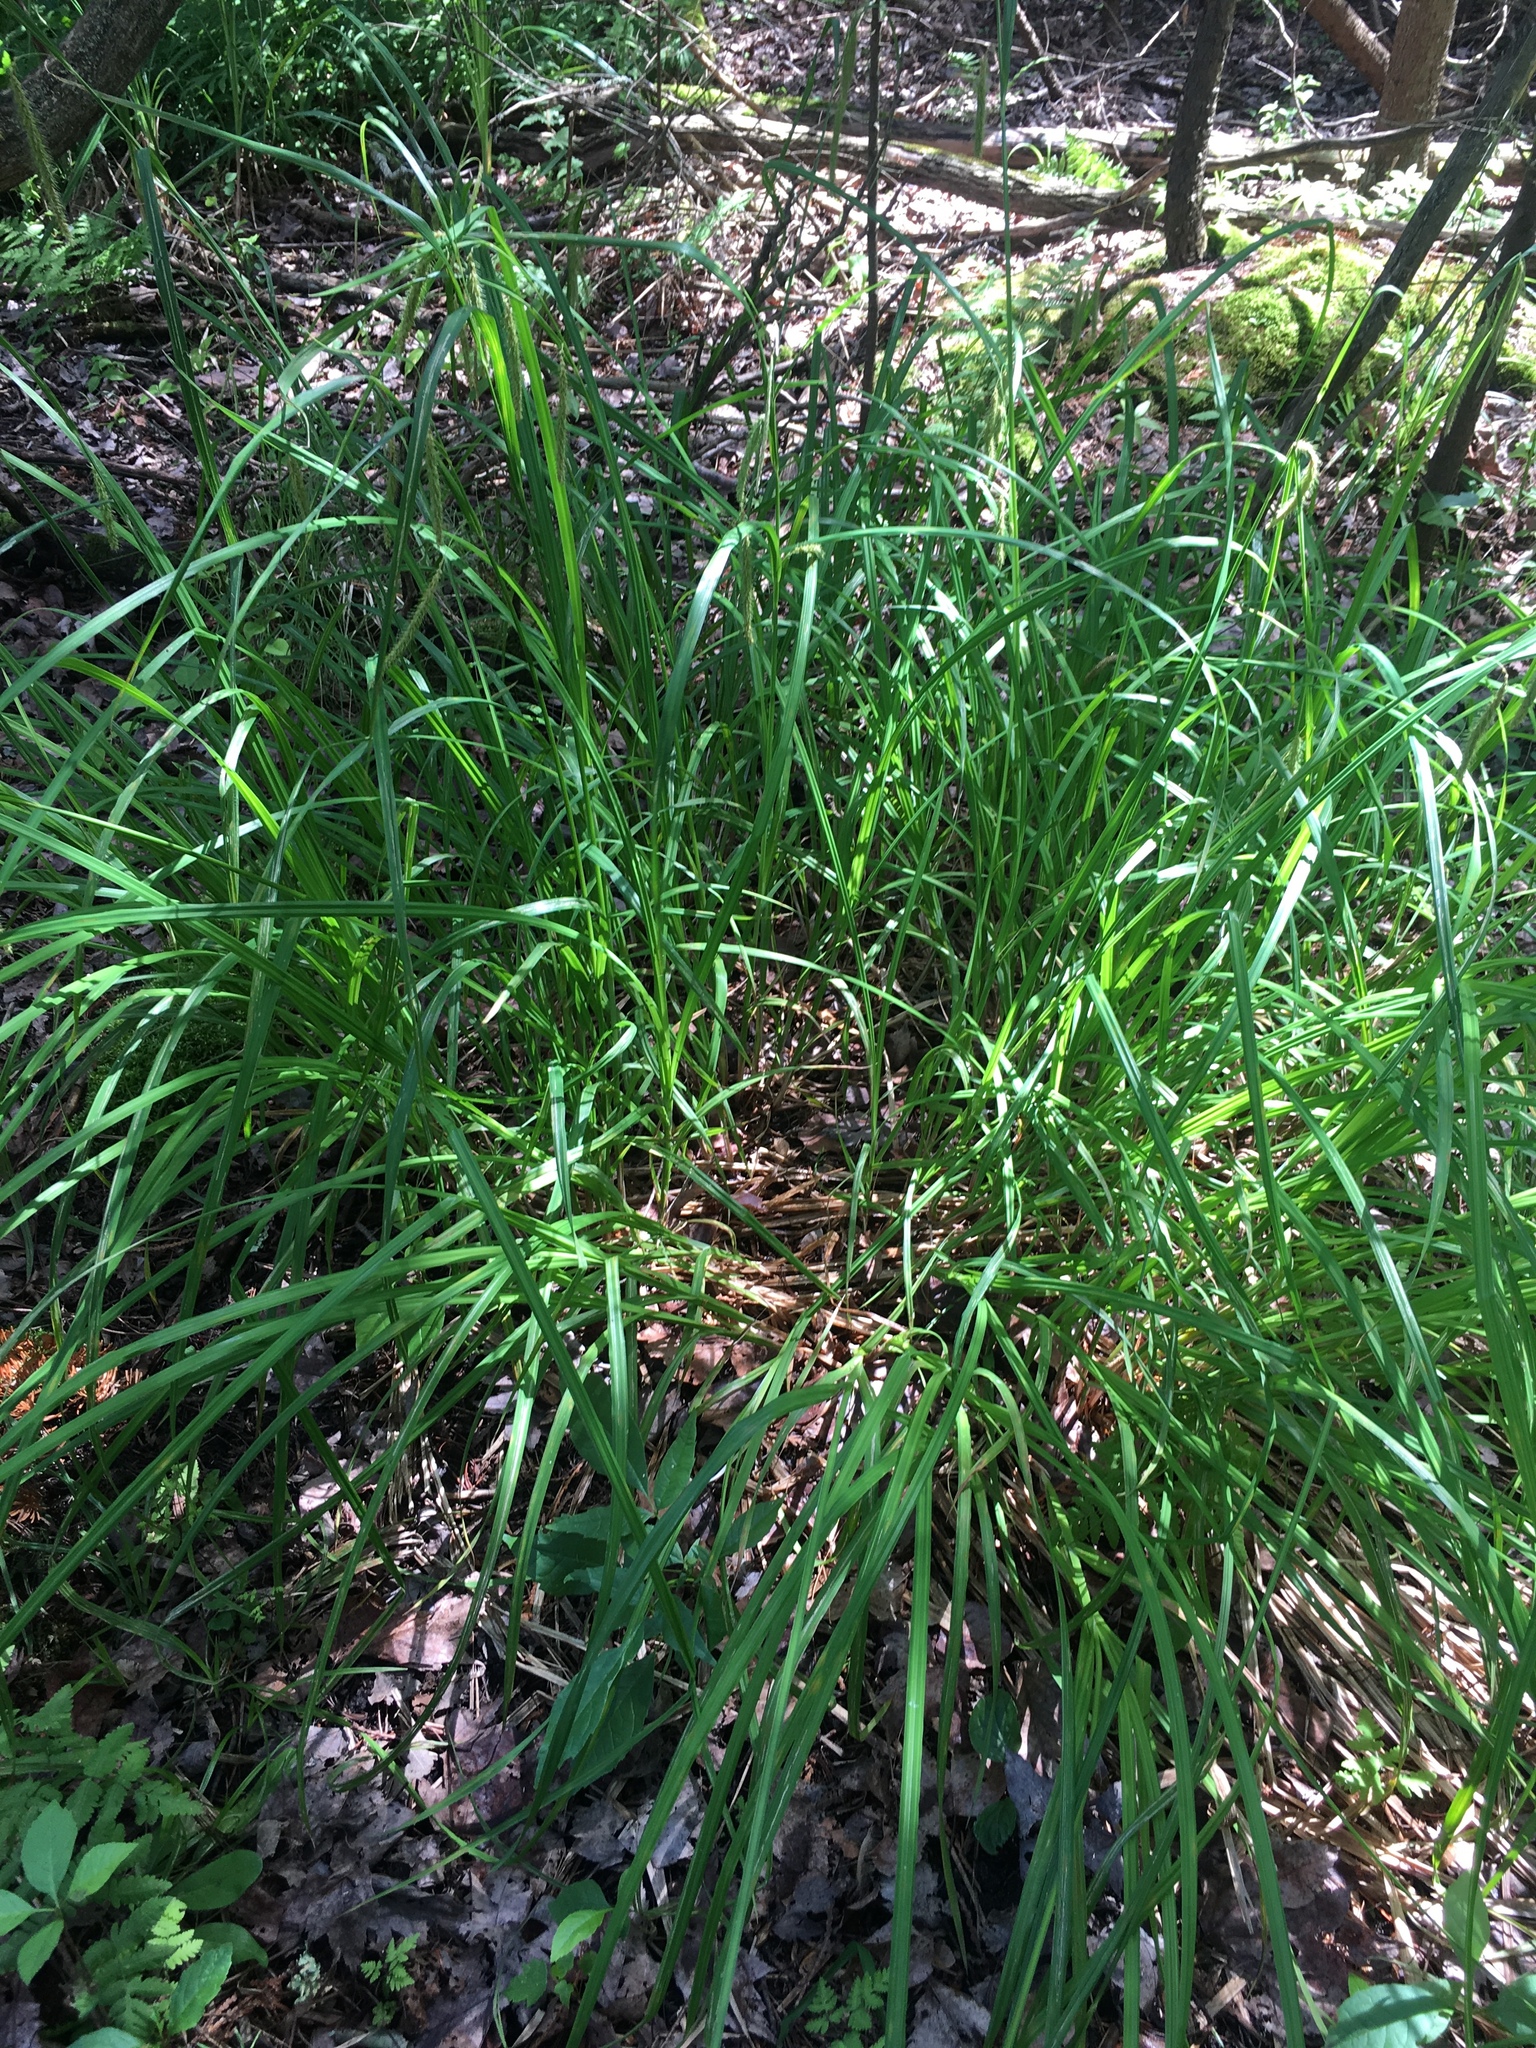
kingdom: Plantae
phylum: Tracheophyta
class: Liliopsida
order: Poales
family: Cyperaceae
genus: Carex
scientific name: Carex crinita
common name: Fringed sedge
